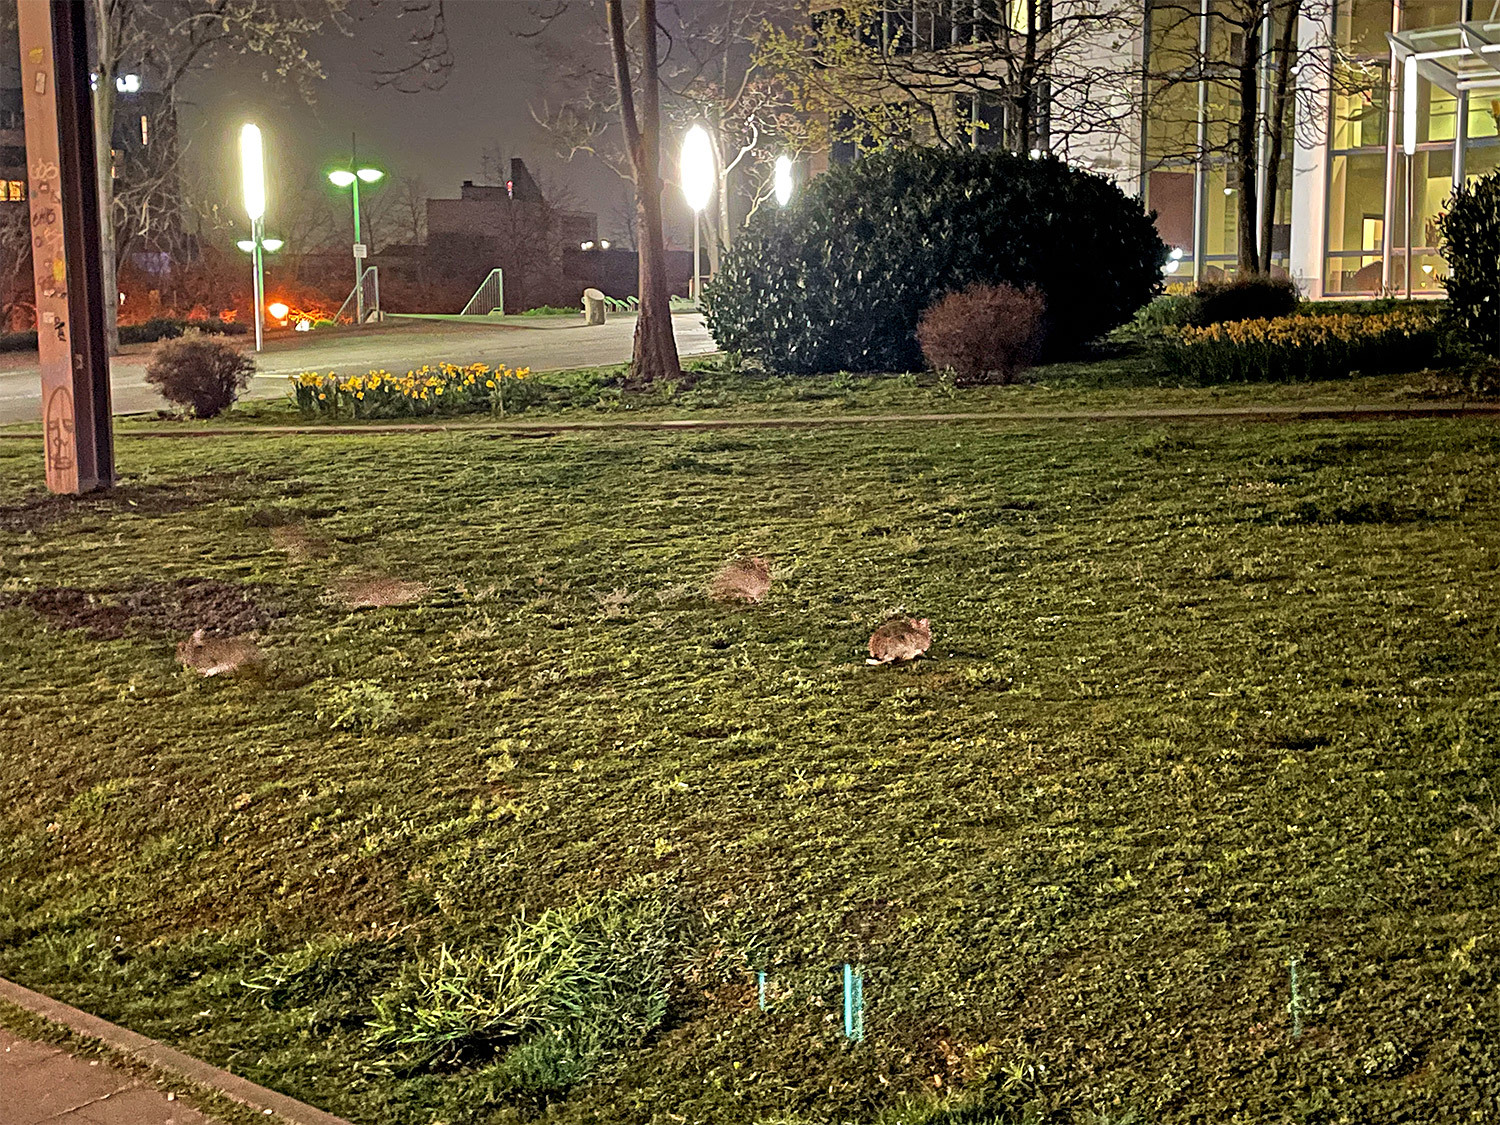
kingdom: Animalia
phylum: Chordata
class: Mammalia
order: Lagomorpha
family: Leporidae
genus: Oryctolagus
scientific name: Oryctolagus cuniculus
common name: European rabbit
